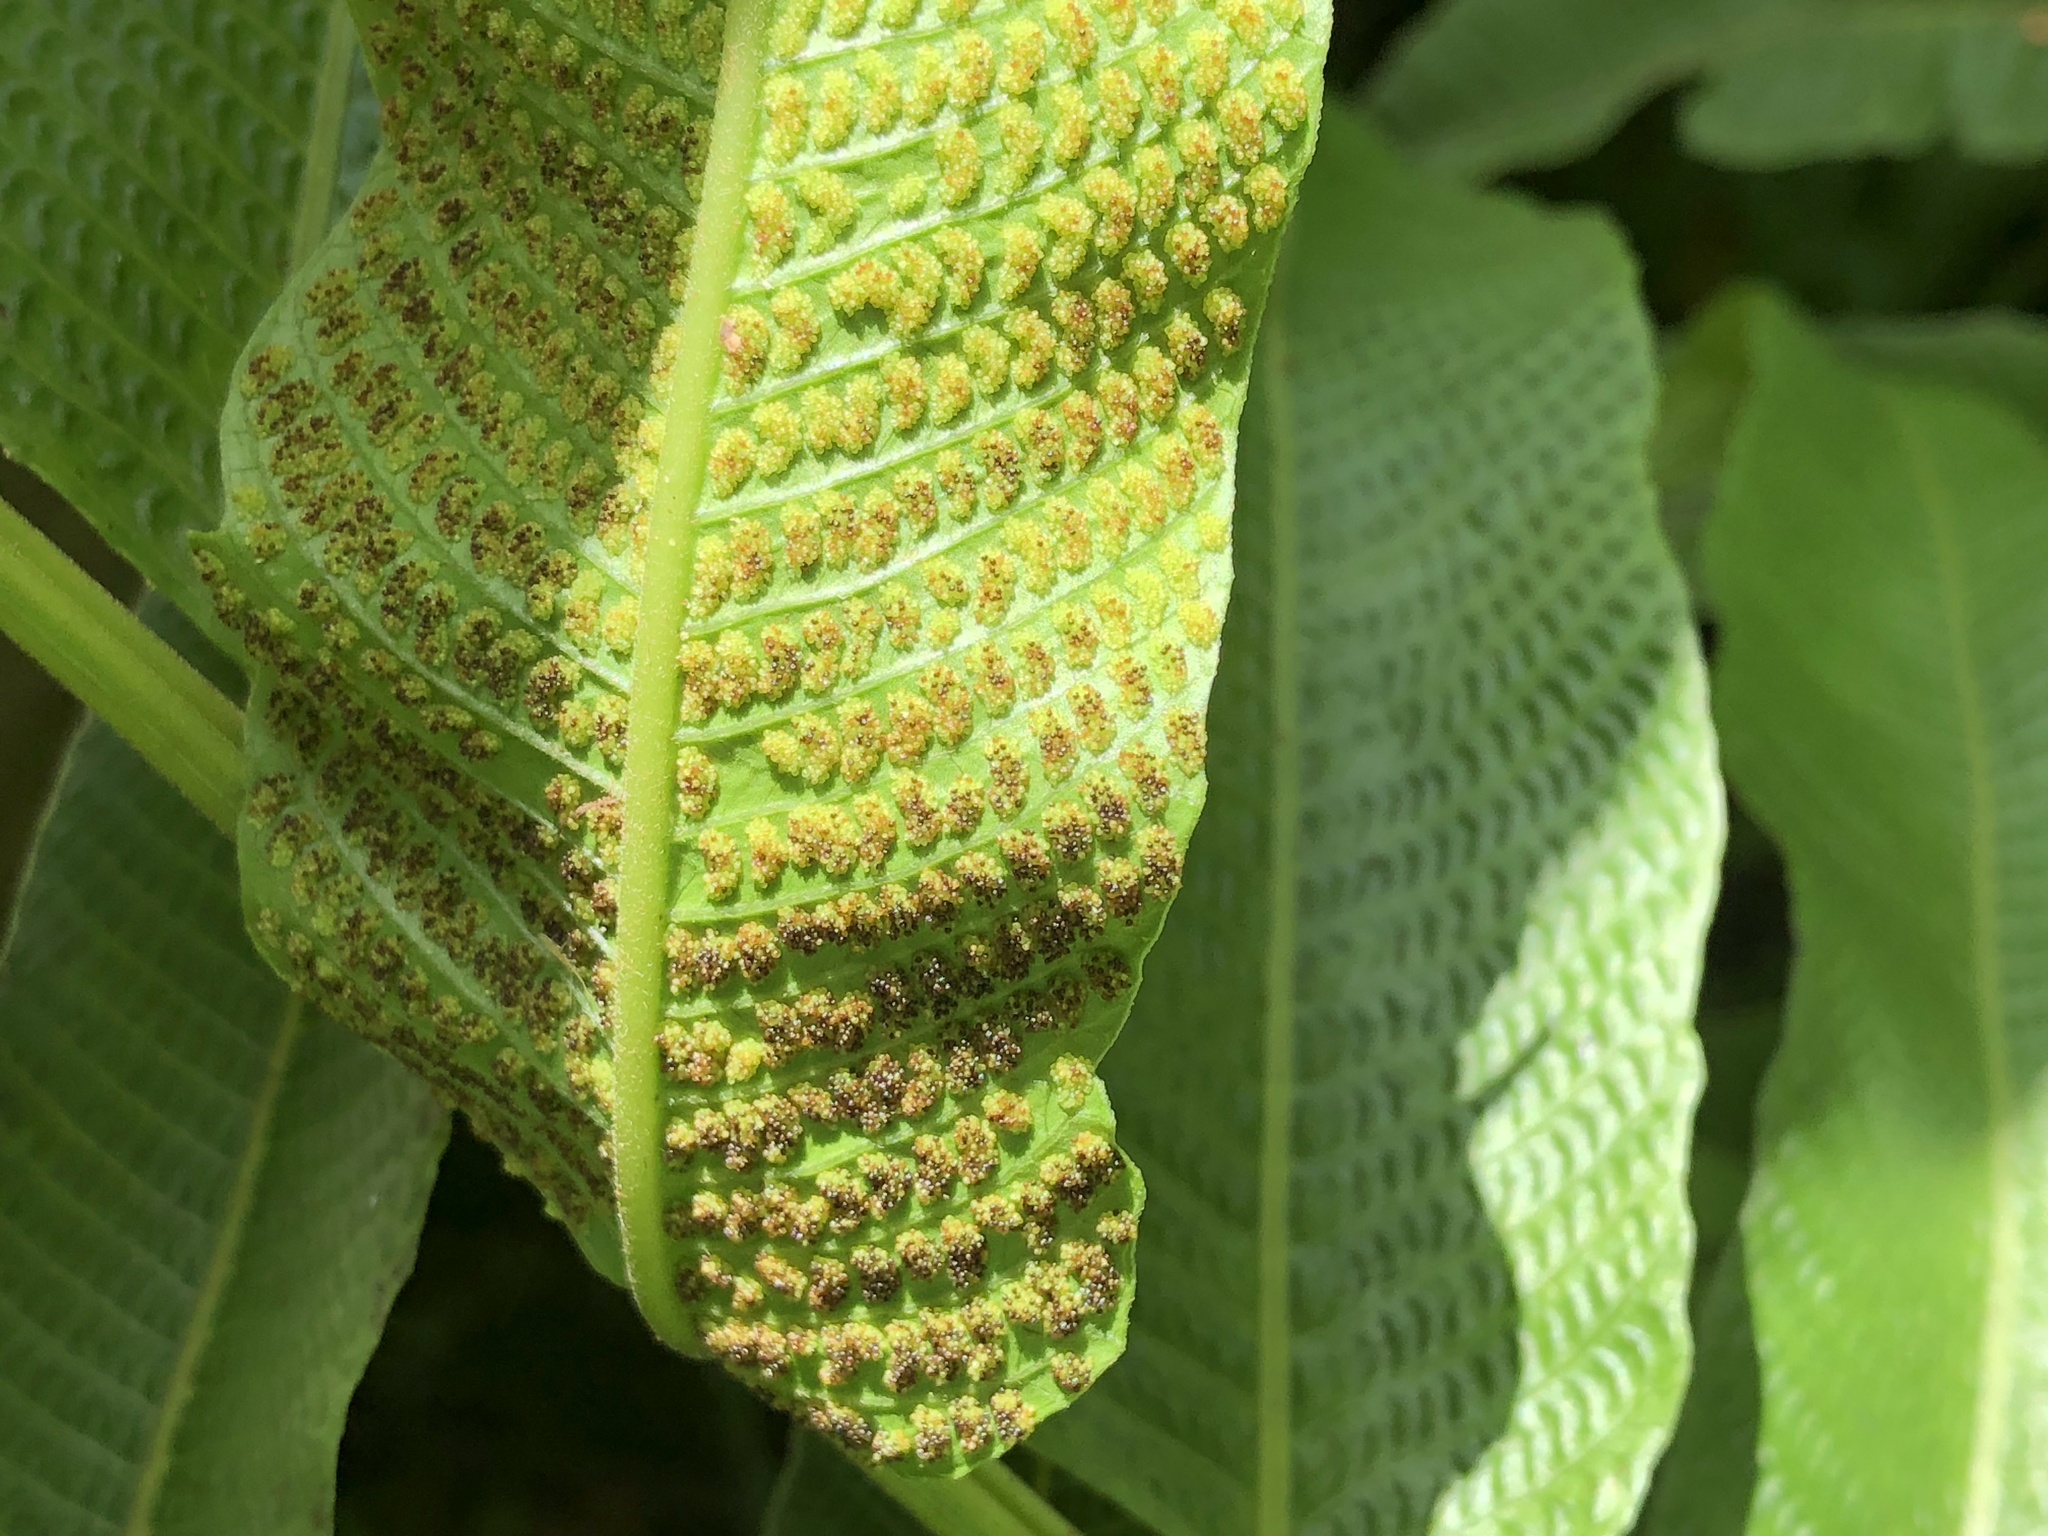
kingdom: Plantae
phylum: Tracheophyta
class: Polypodiopsida
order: Polypodiales
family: Thelypteridaceae
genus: Meniscium
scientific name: Meniscium reticulatum
